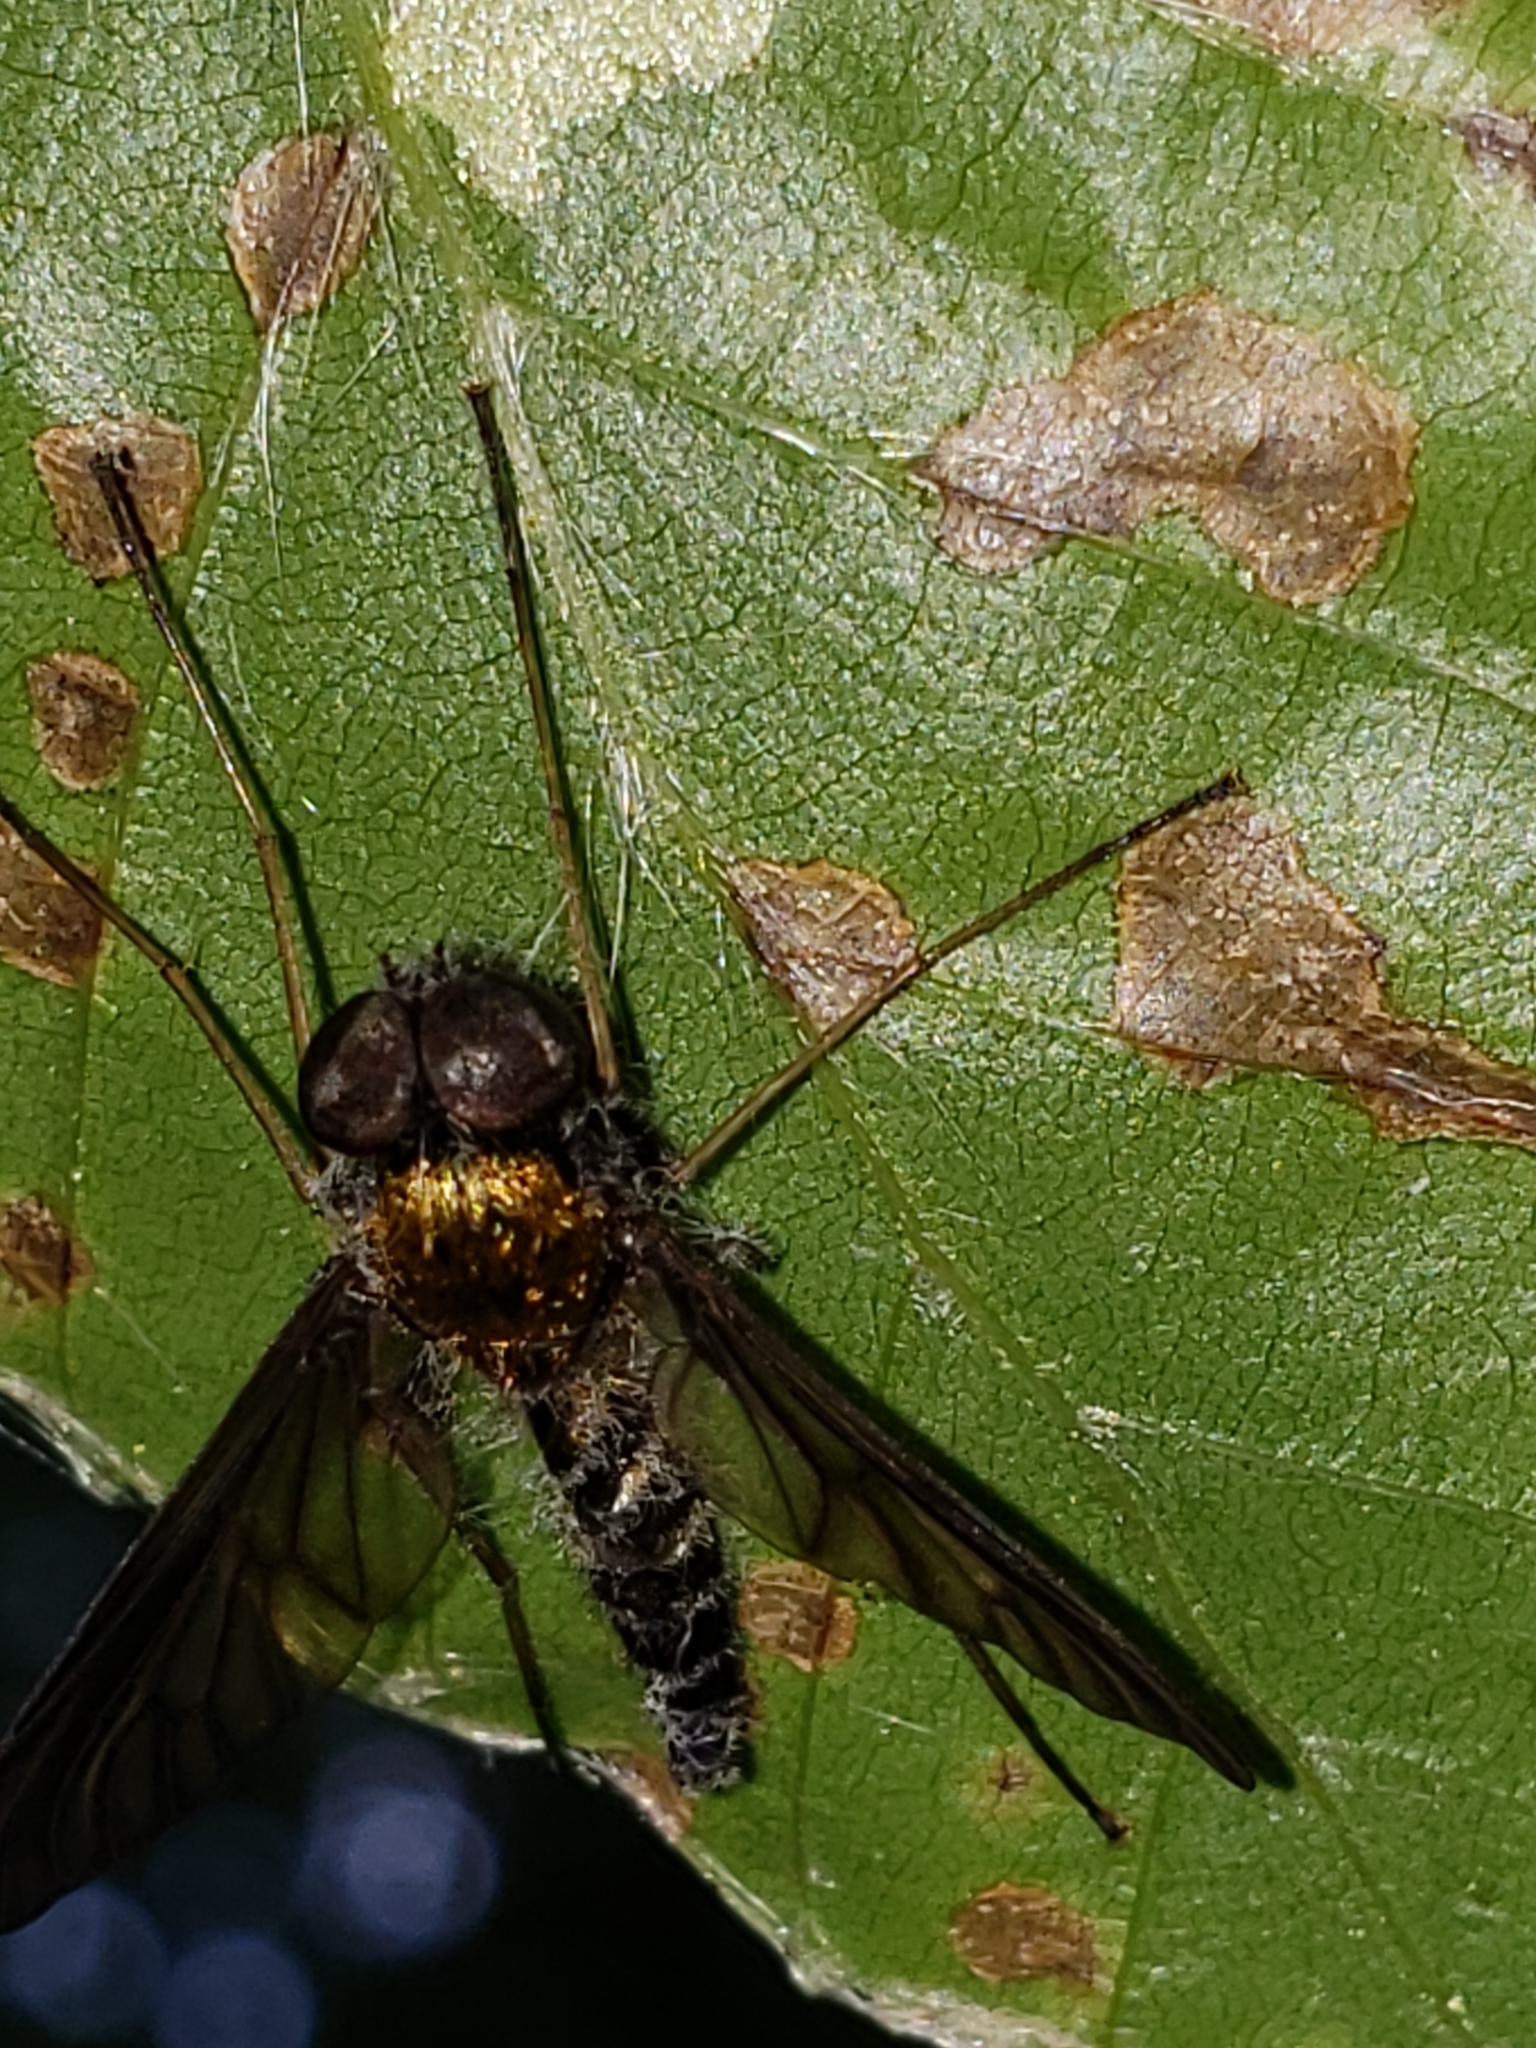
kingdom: Animalia
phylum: Arthropoda
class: Insecta
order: Diptera
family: Rhagionidae
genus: Chrysopilus
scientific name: Chrysopilus thoracicus
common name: Golden-backed snipe fly
